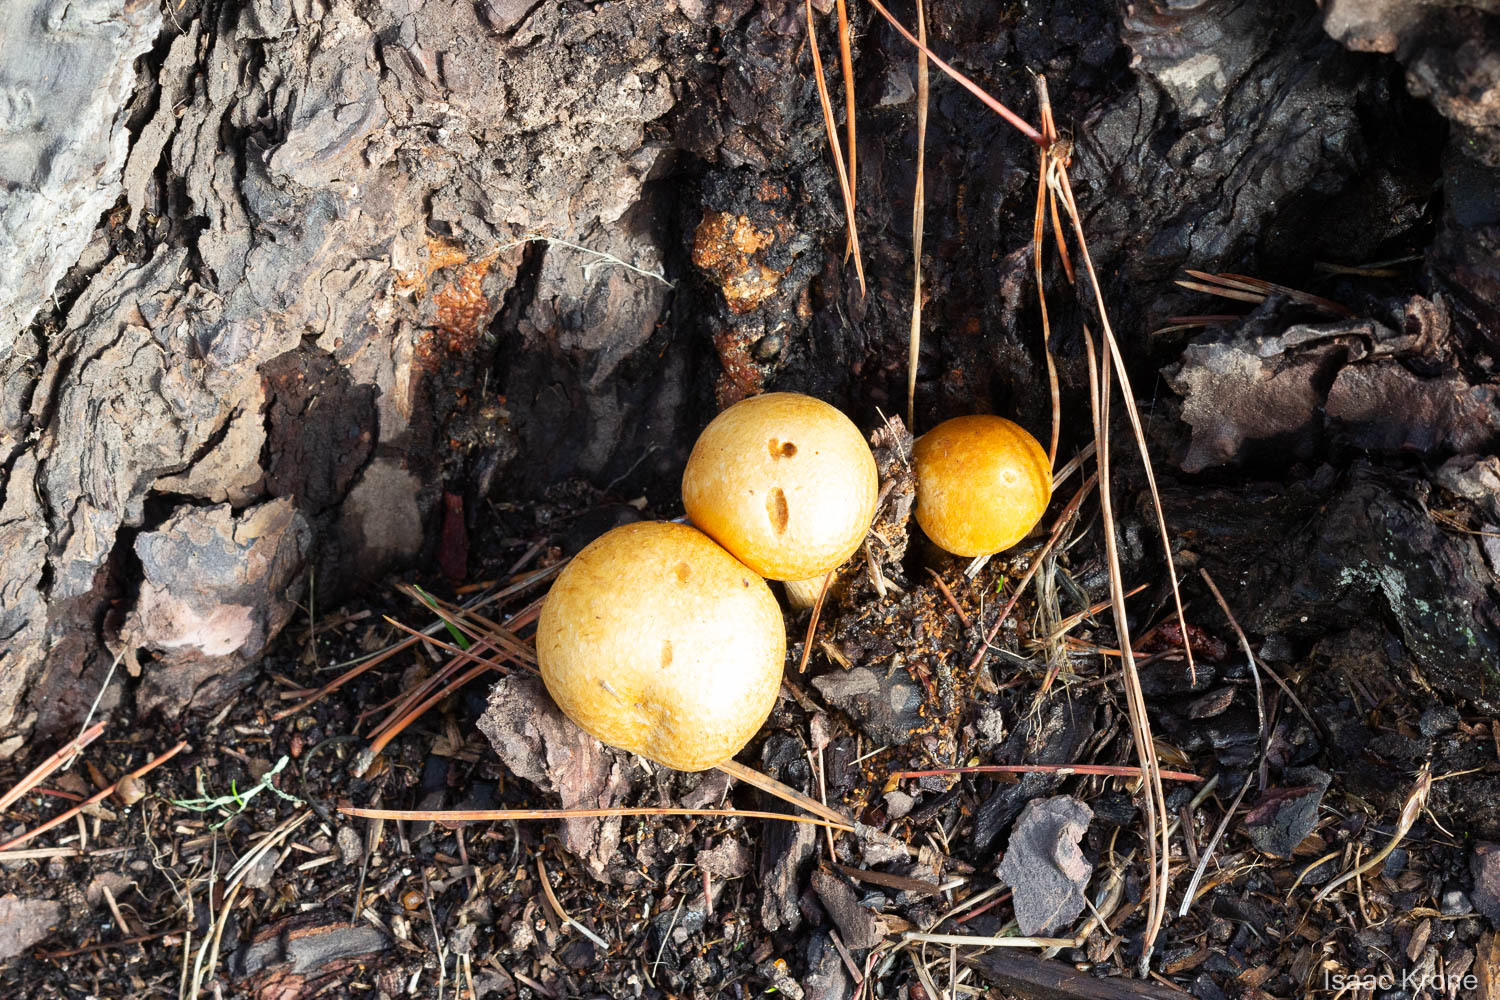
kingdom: Fungi
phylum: Basidiomycota
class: Agaricomycetes
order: Agaricales
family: Hymenogastraceae
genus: Gymnopilus
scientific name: Gymnopilus ventricosus
